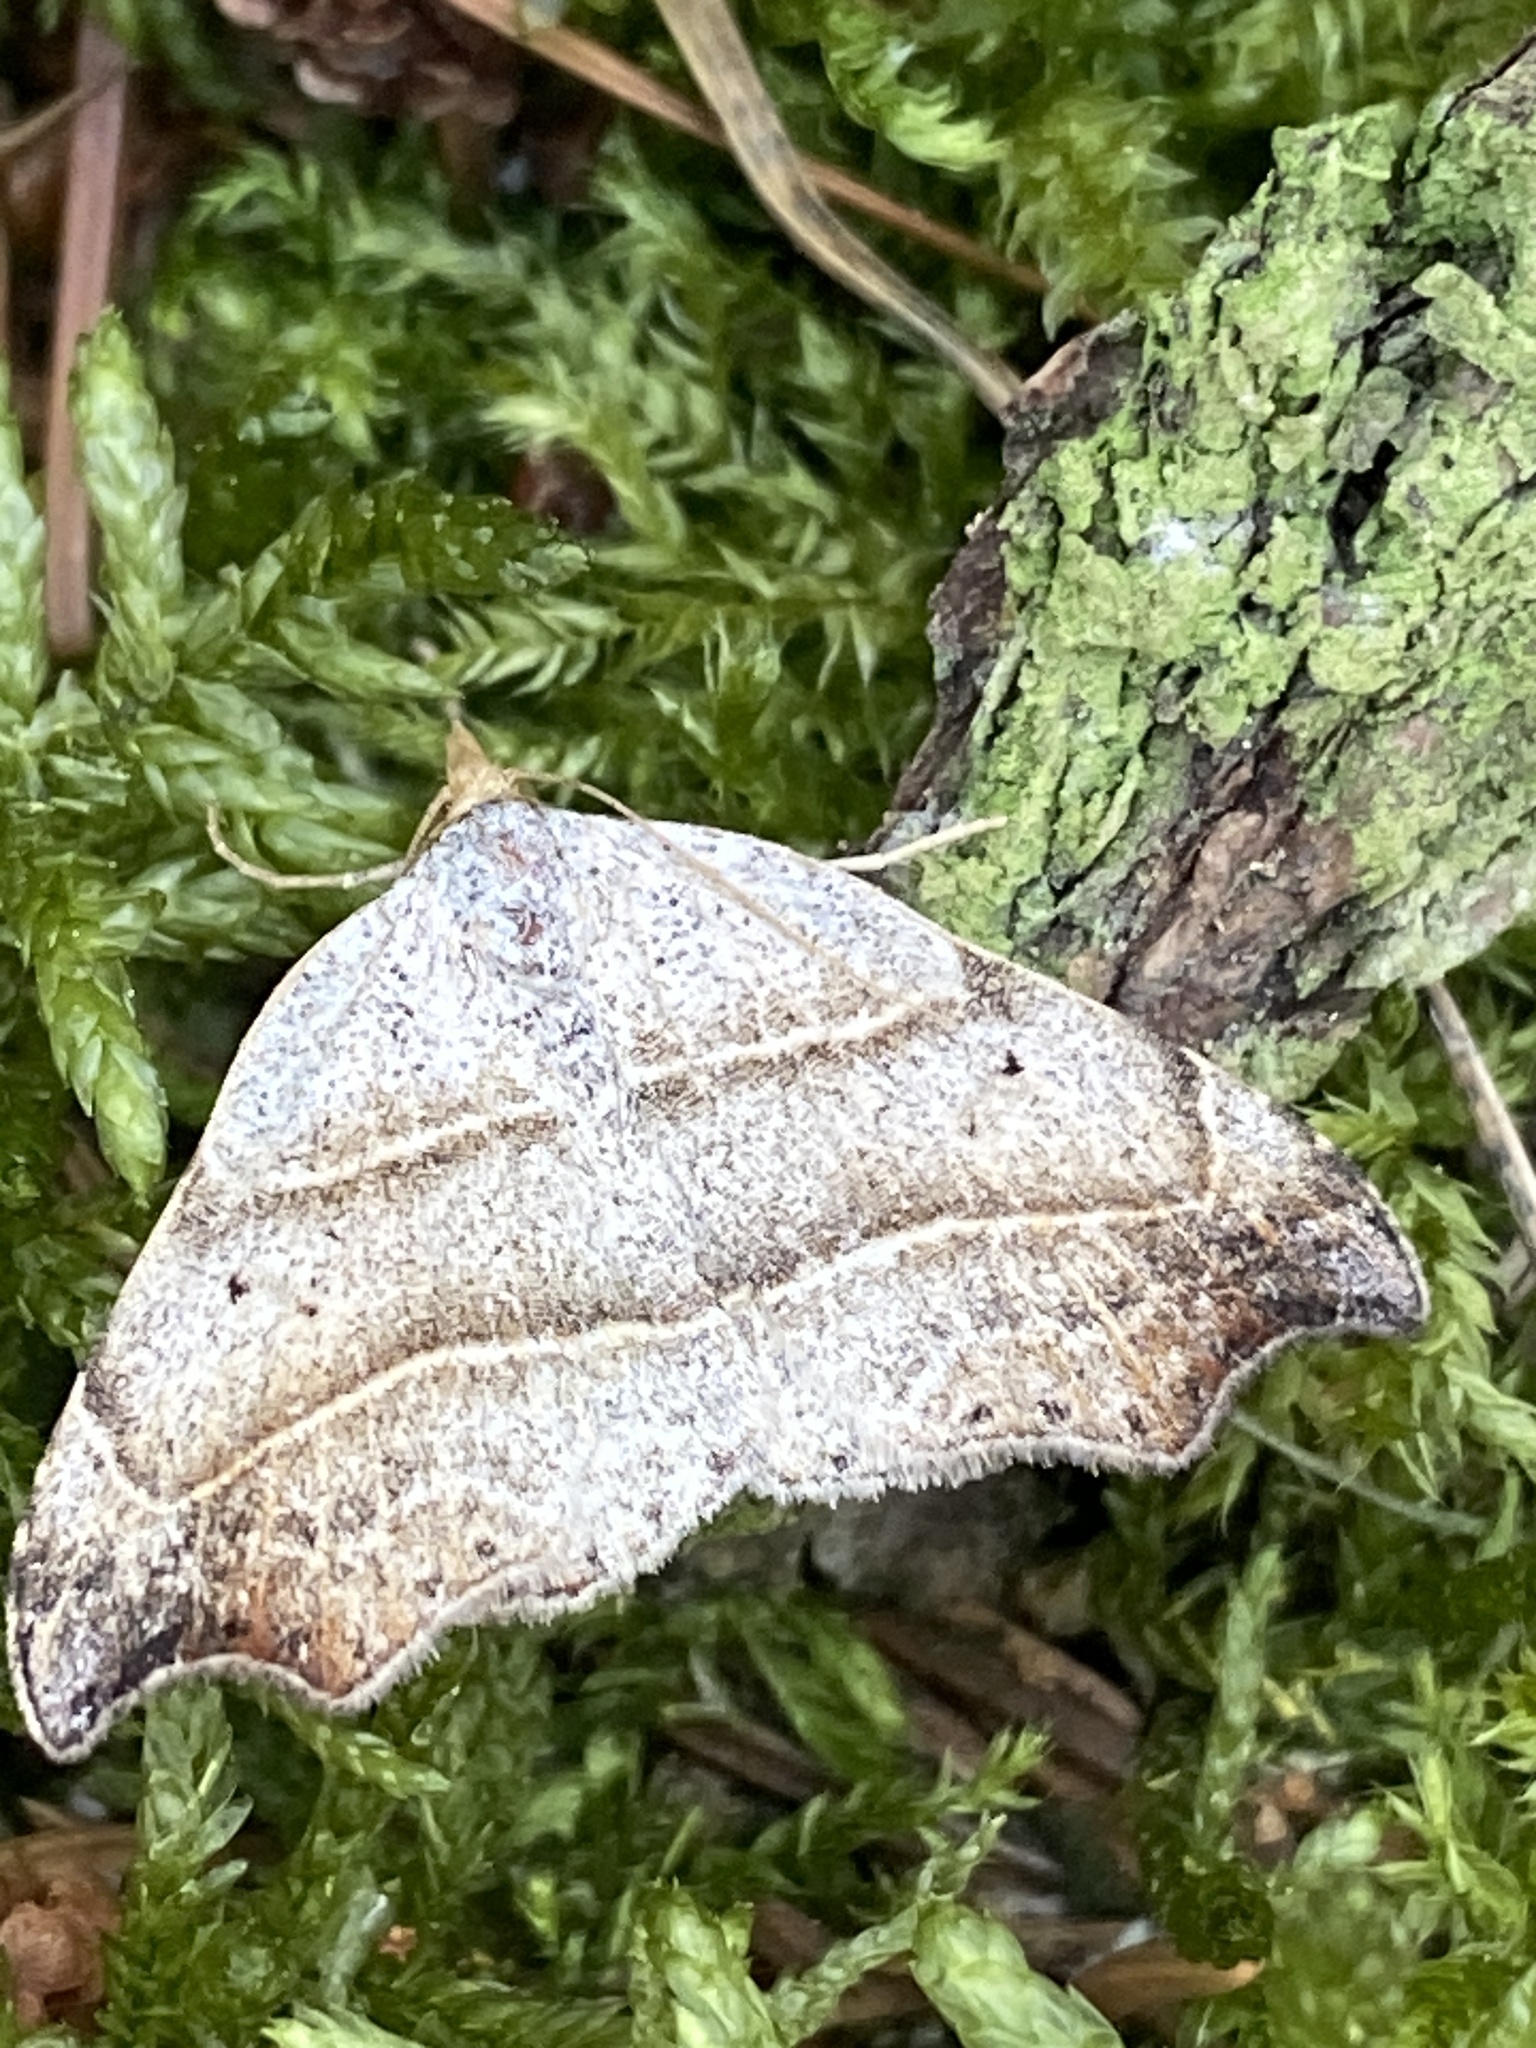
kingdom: Animalia
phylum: Arthropoda
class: Insecta
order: Lepidoptera
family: Erebidae
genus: Laspeyria
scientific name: Laspeyria flexula
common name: Beautiful hook-tip
